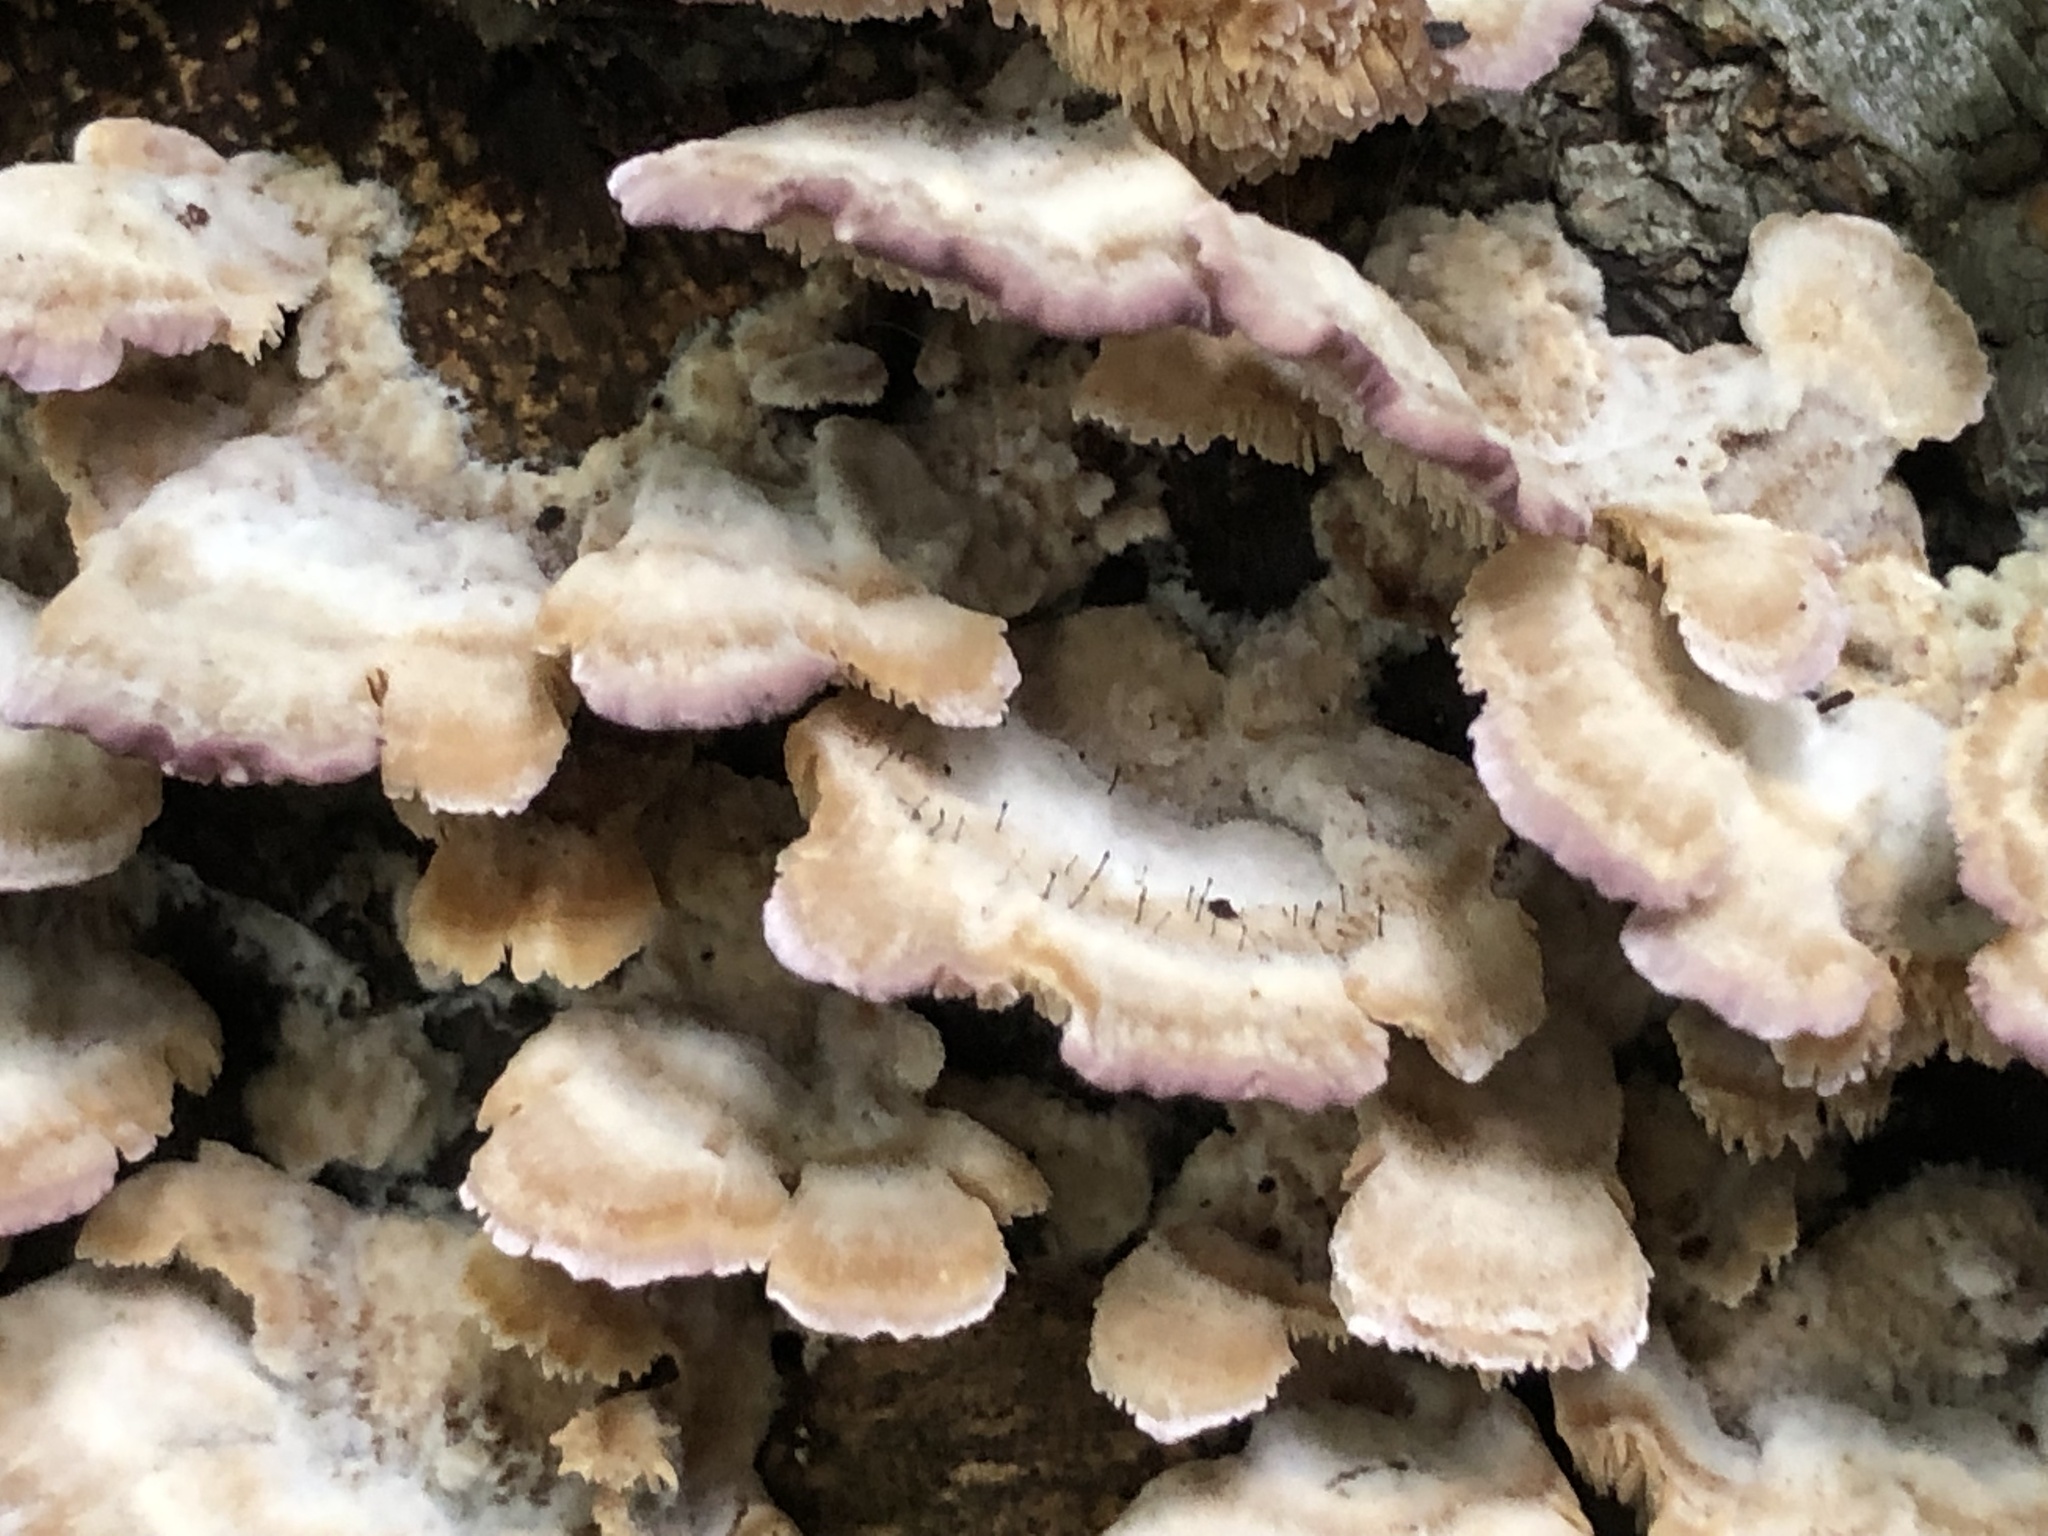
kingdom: Fungi
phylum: Ascomycota
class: Eurotiomycetes
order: Mycocaliciales
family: Mycocaliciaceae
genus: Phaeocalicium
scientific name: Phaeocalicium polyporaeum
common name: Fairy pins
